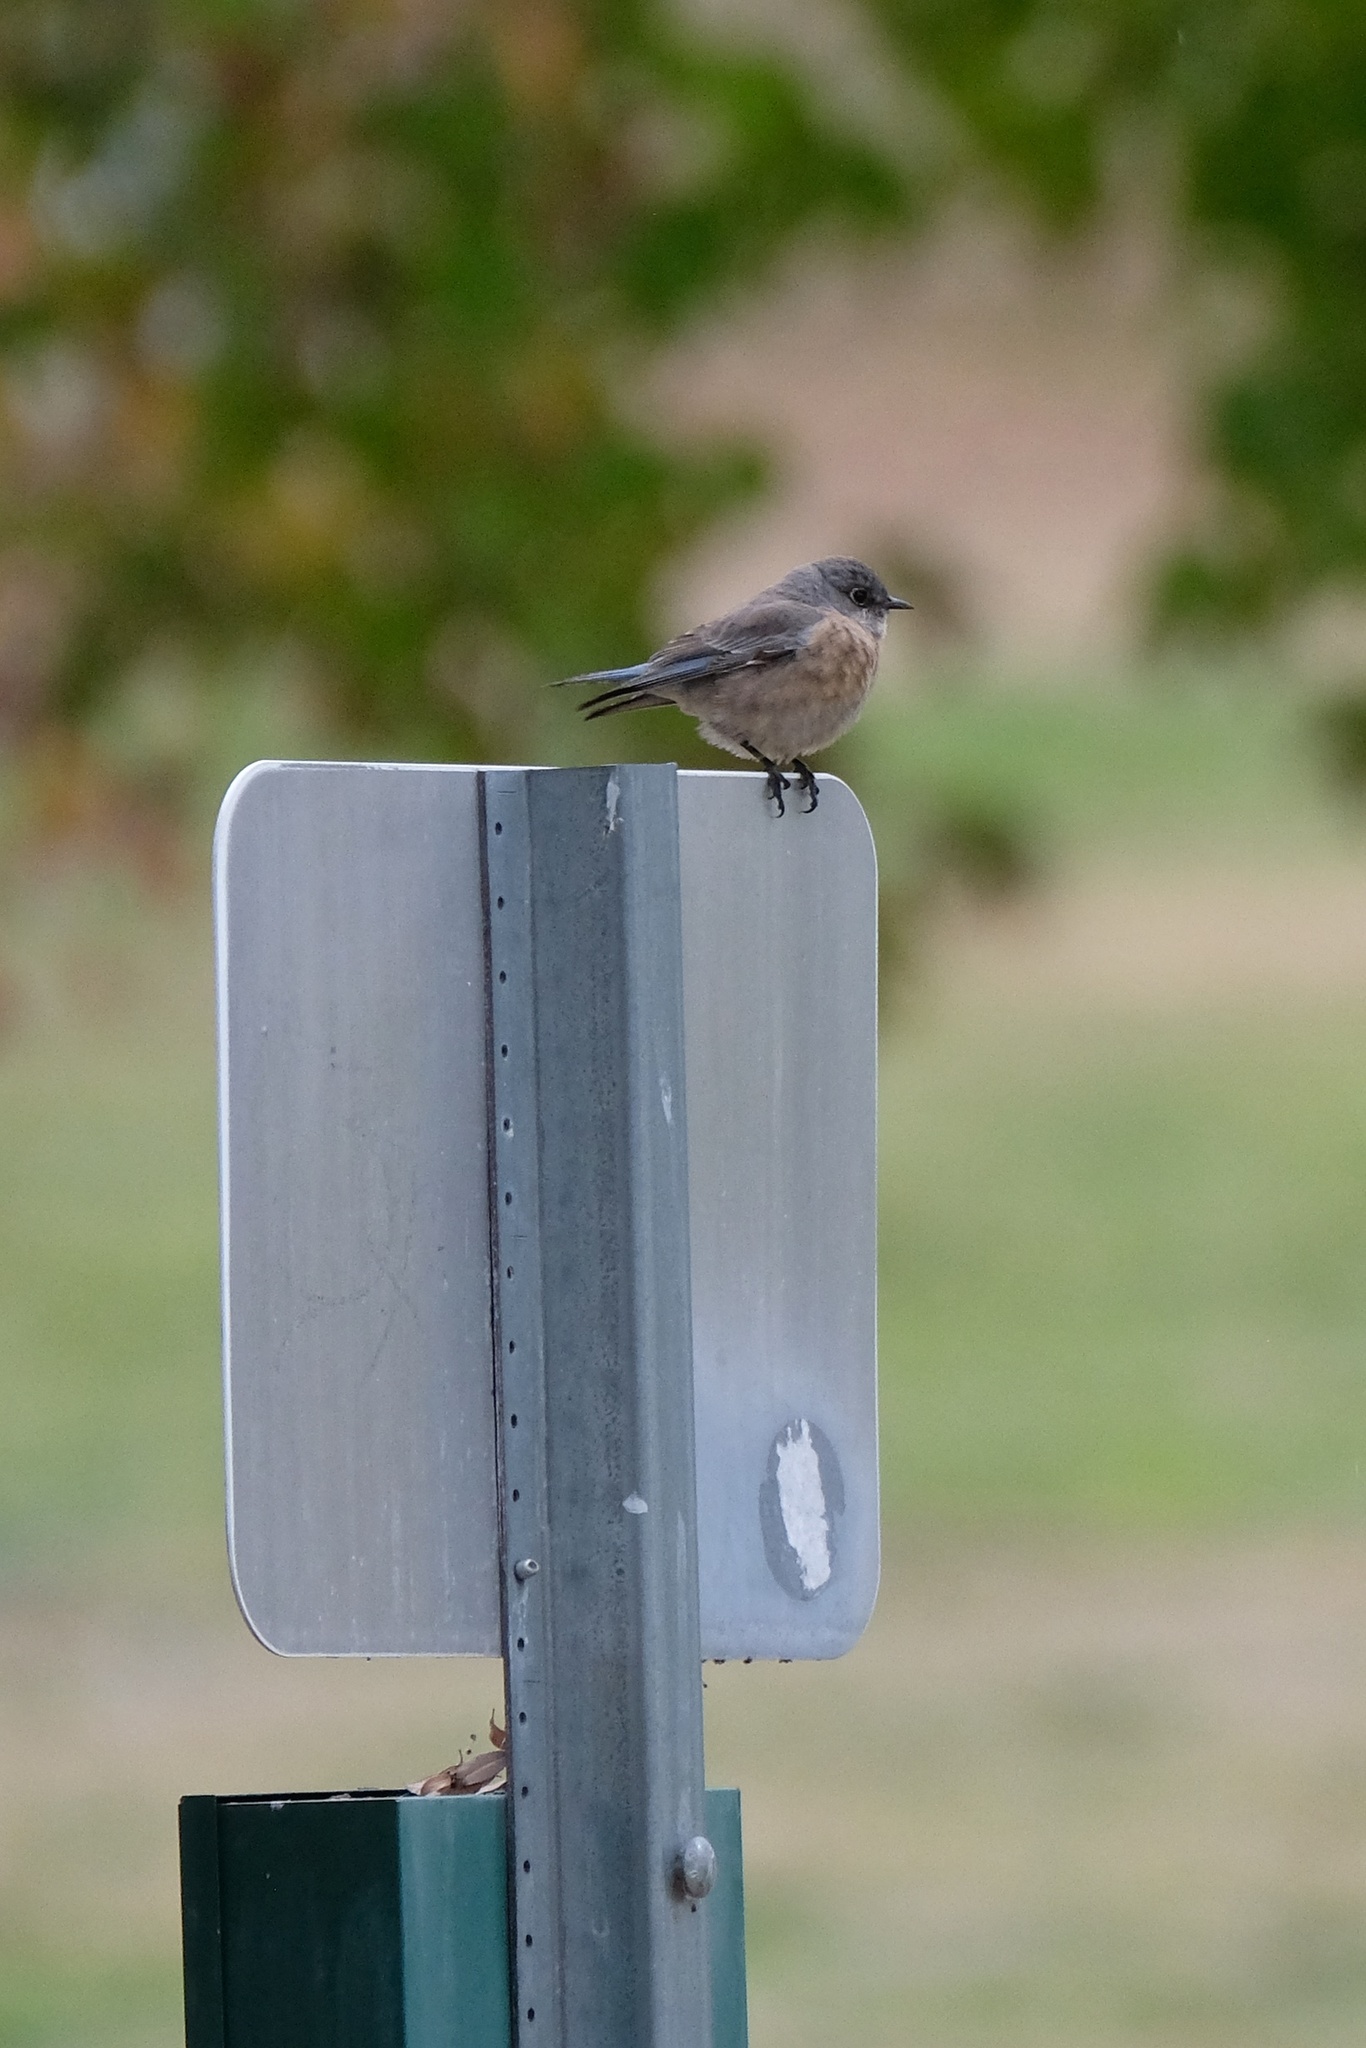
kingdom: Animalia
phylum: Chordata
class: Aves
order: Passeriformes
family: Turdidae
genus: Sialia
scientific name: Sialia mexicana
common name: Western bluebird
